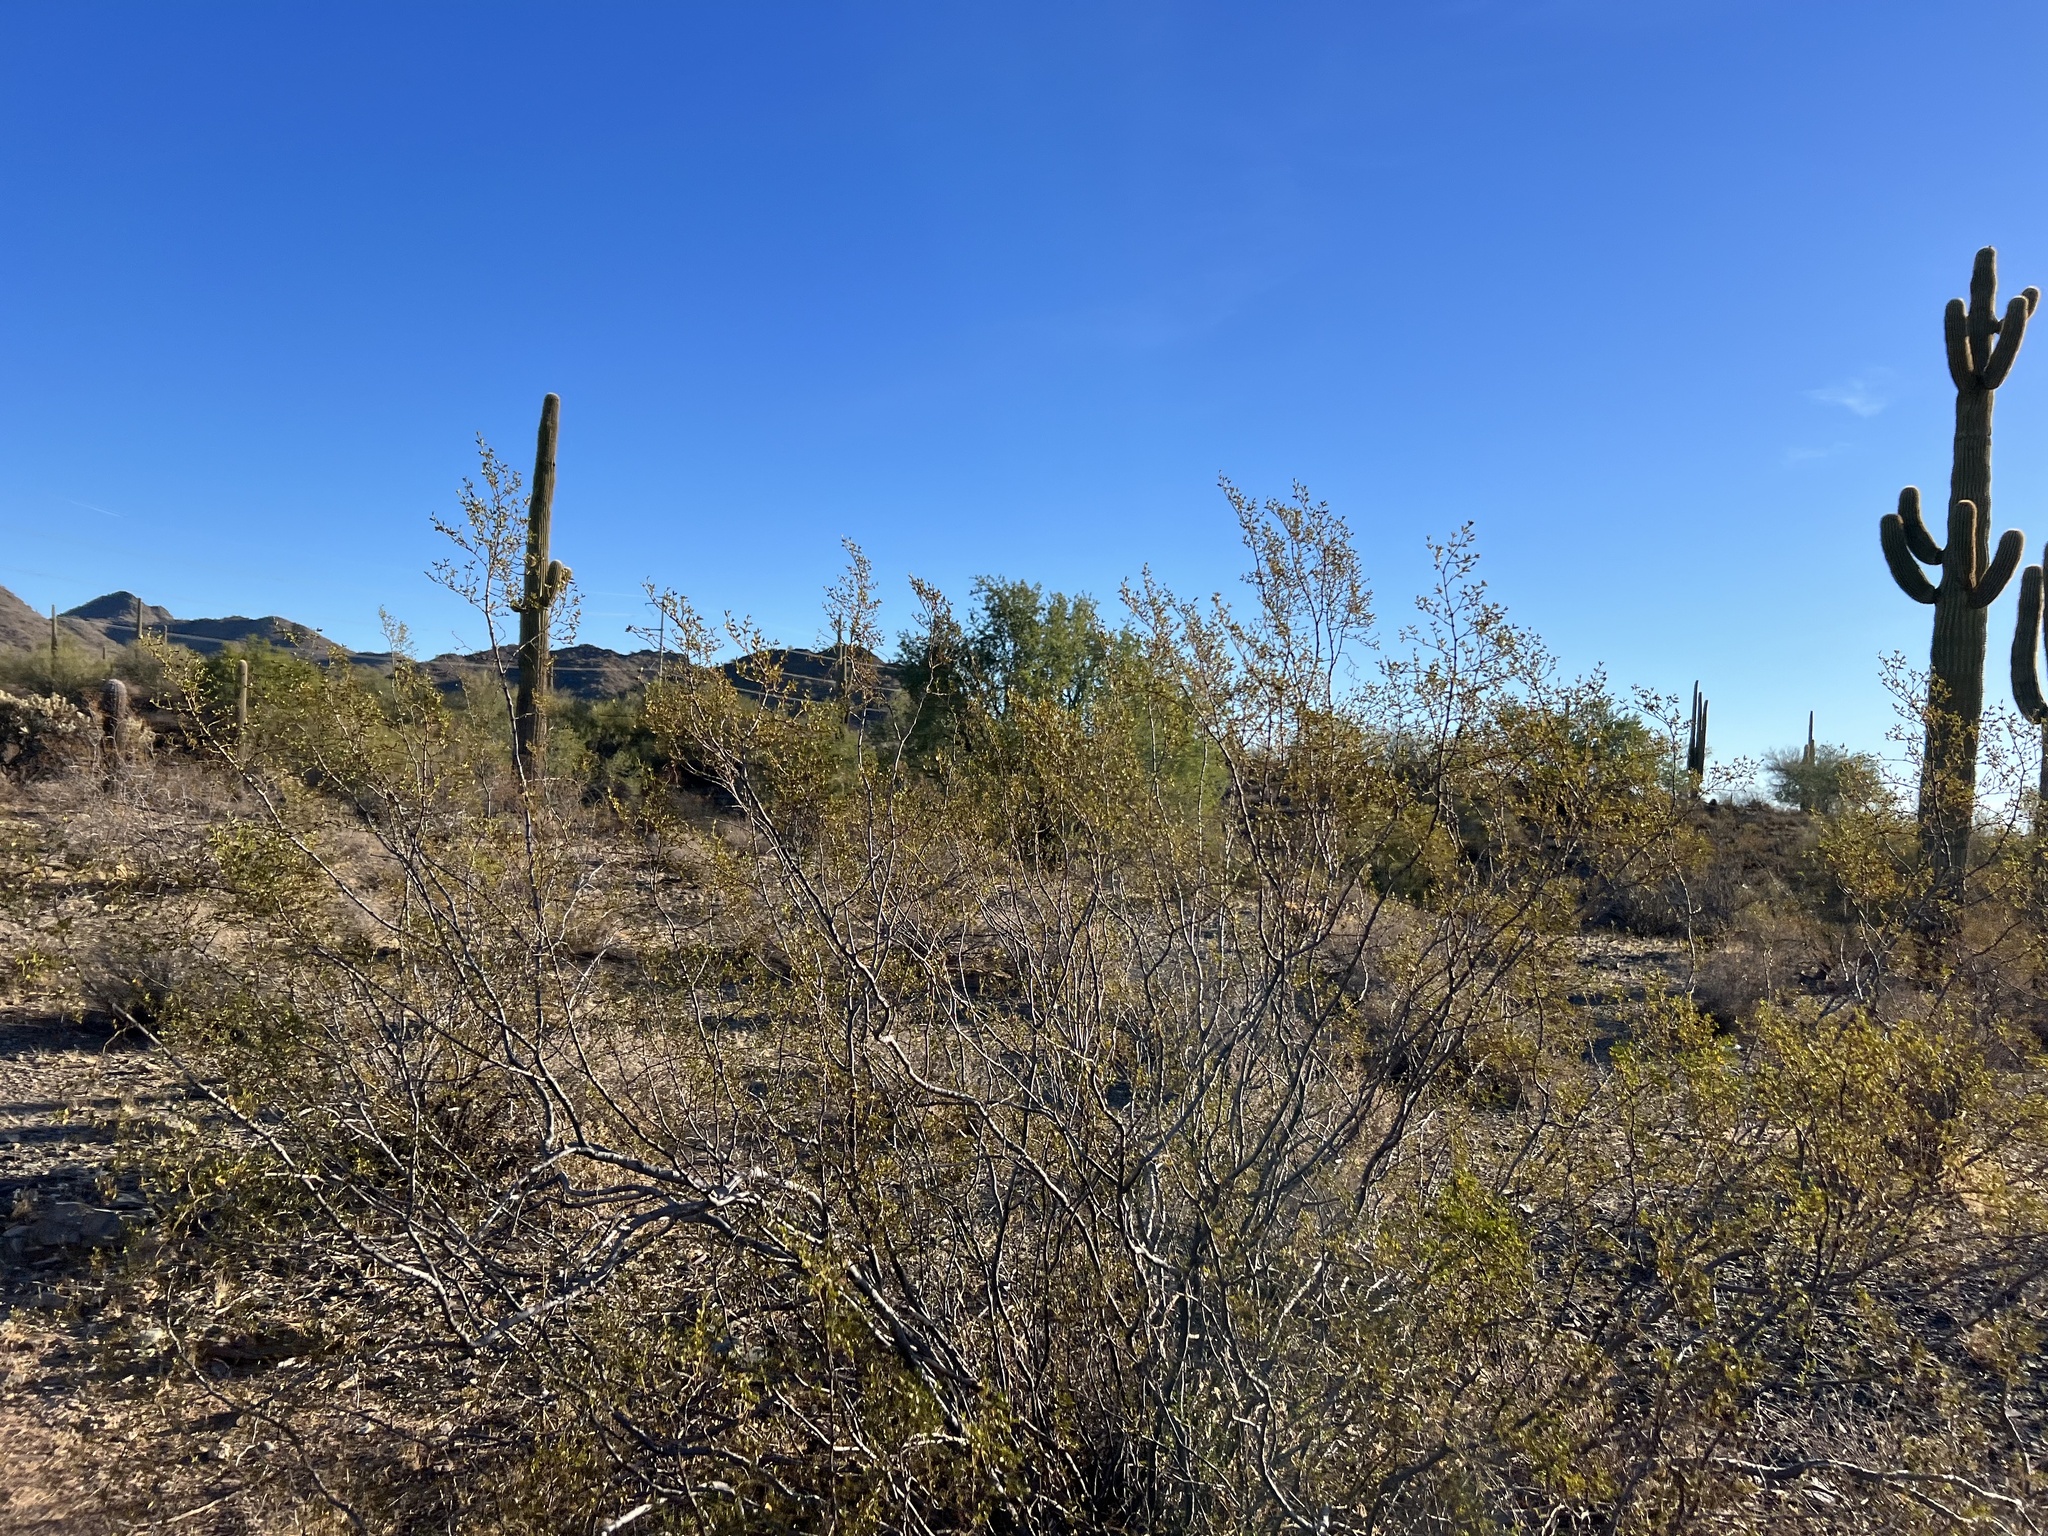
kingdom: Plantae
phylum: Tracheophyta
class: Magnoliopsida
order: Zygophyllales
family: Zygophyllaceae
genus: Larrea
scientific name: Larrea tridentata
